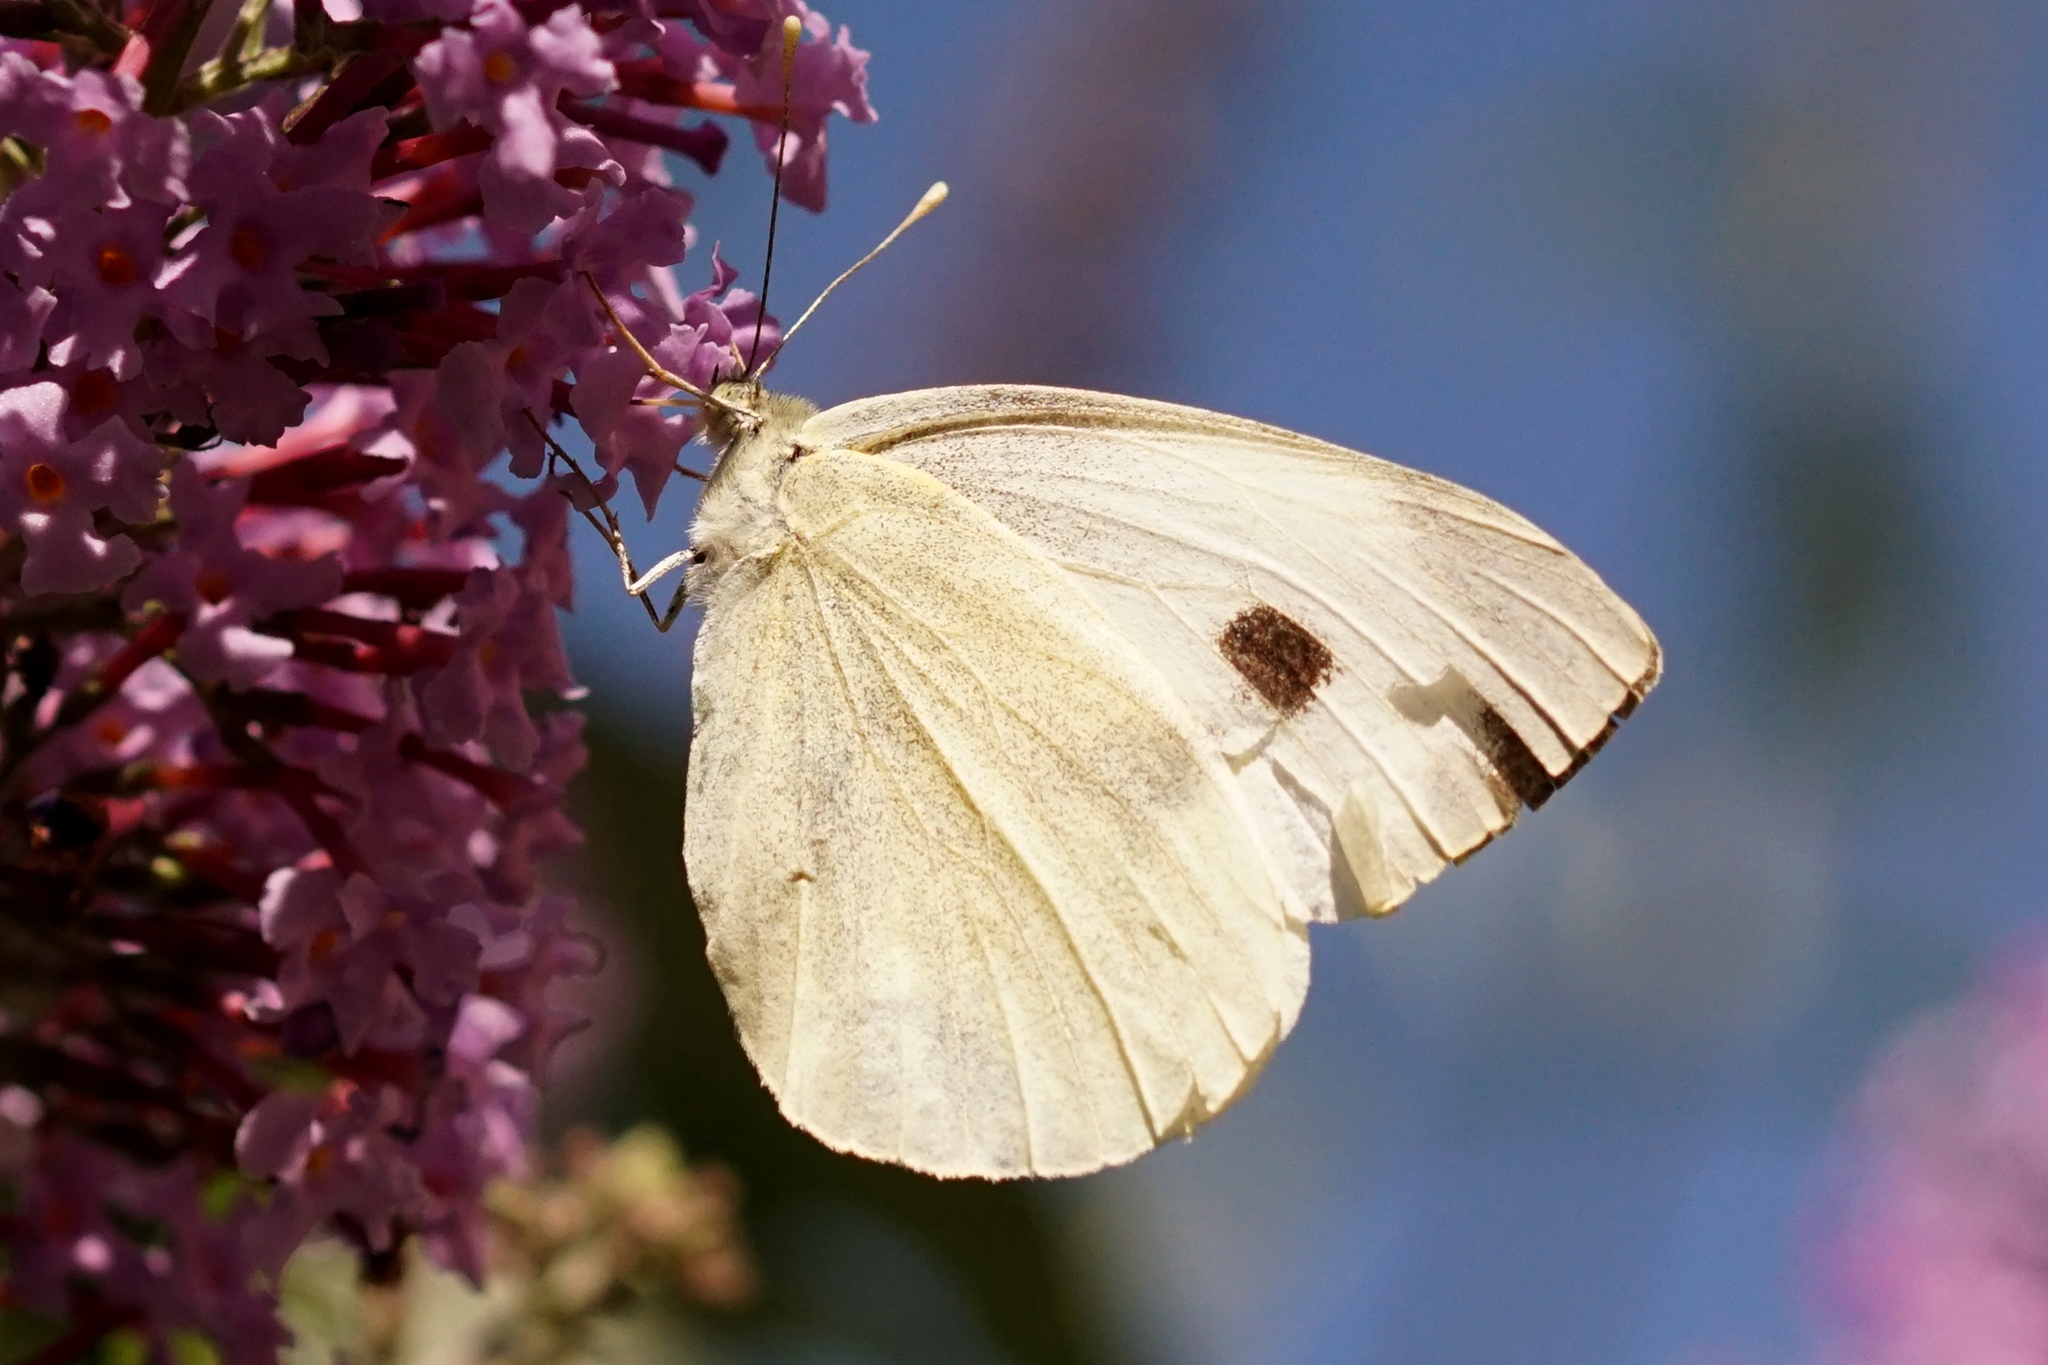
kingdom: Animalia
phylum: Arthropoda
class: Insecta
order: Lepidoptera
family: Pieridae
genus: Pieris
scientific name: Pieris brassicae
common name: Large white
